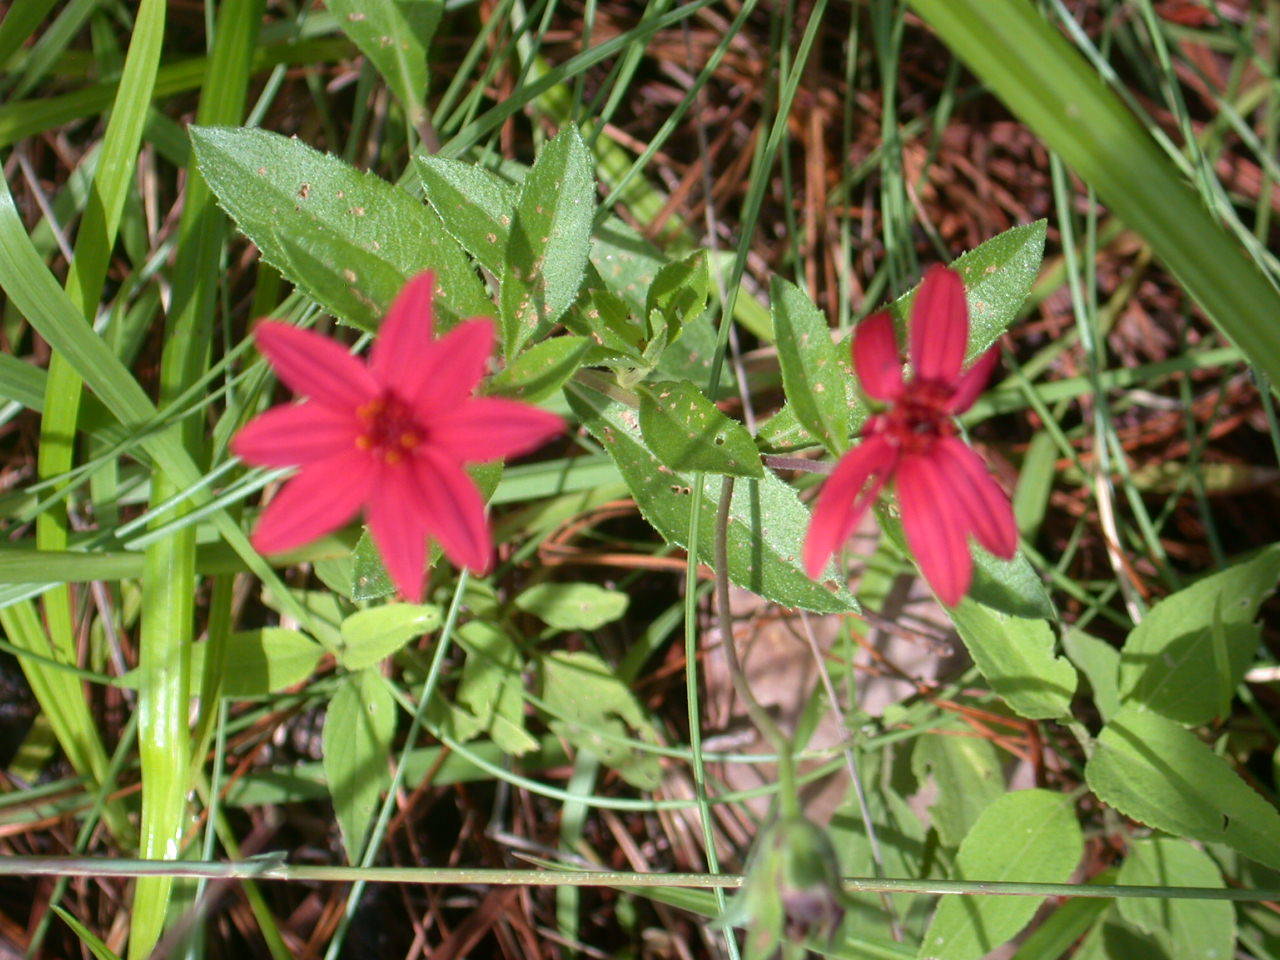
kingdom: Plantae
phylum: Tracheophyta
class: Magnoliopsida
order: Asterales
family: Asteraceae
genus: Wedelia
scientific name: Wedelia purpurea
